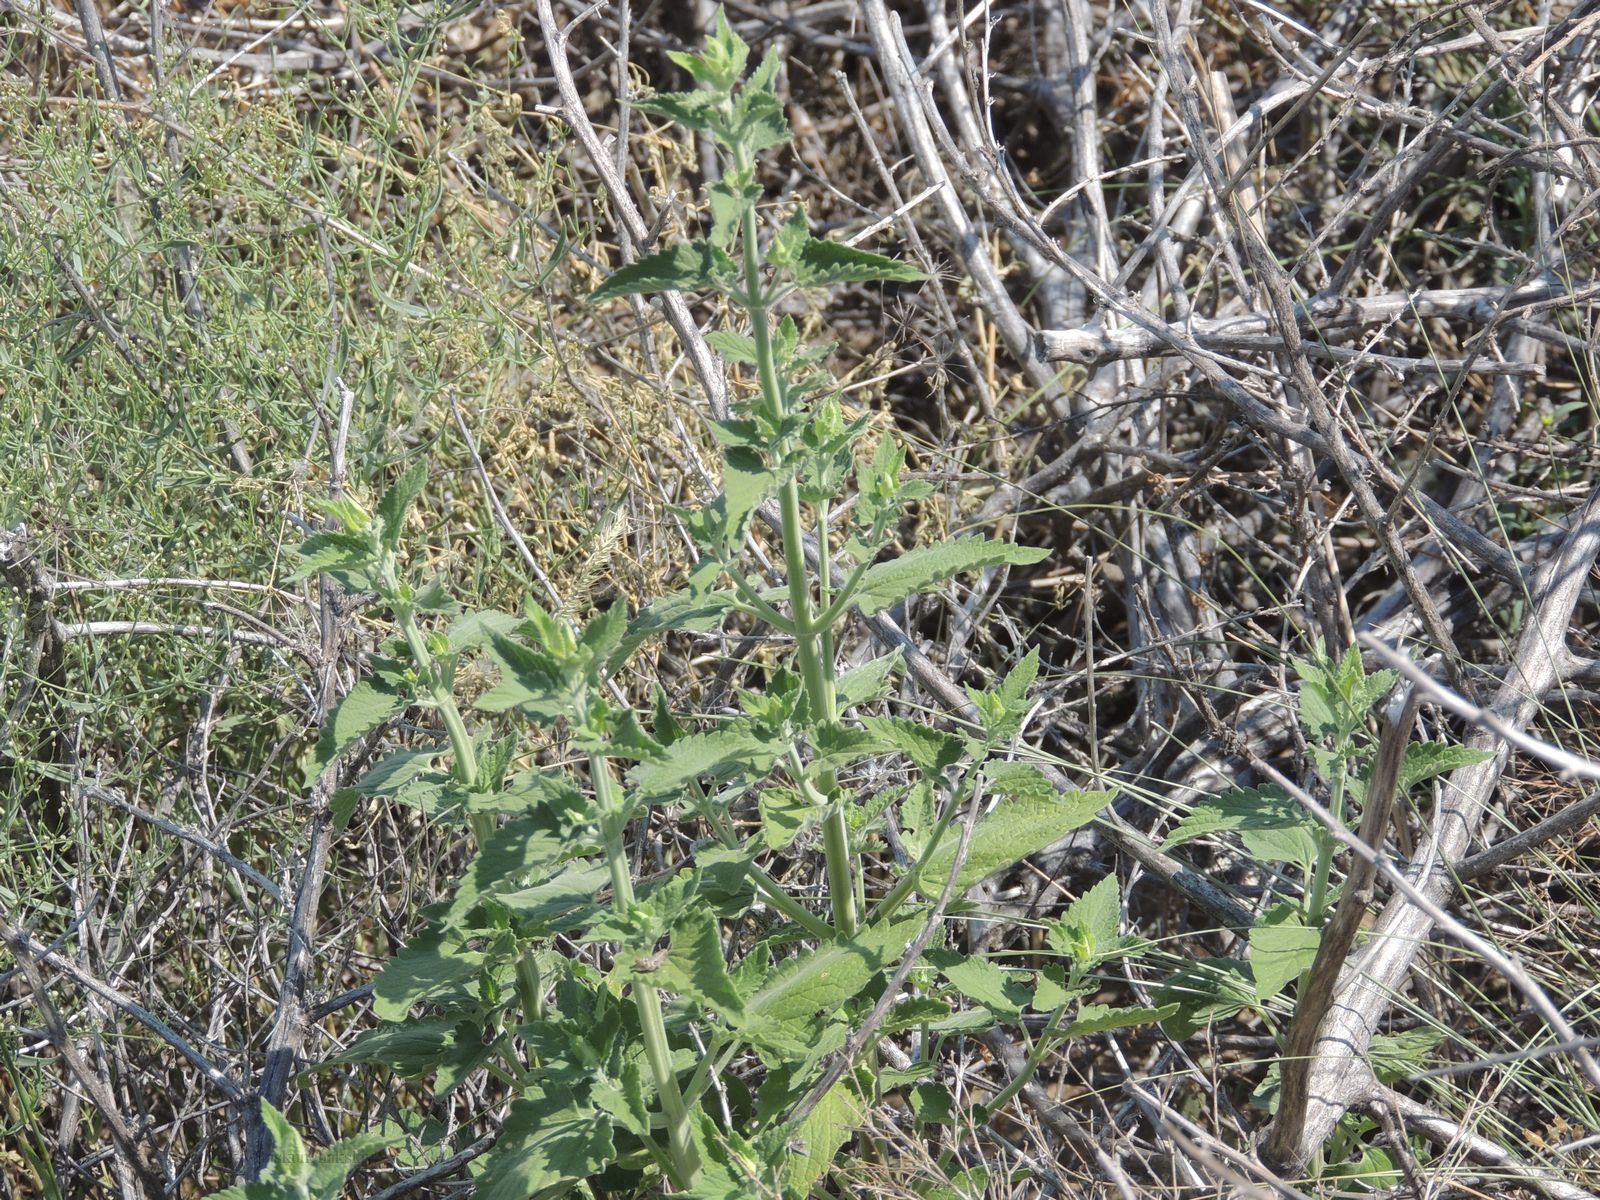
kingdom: Plantae
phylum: Tracheophyta
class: Magnoliopsida
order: Lamiales
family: Lamiaceae
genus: Nepeta
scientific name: Nepeta cataria
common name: Catnip
